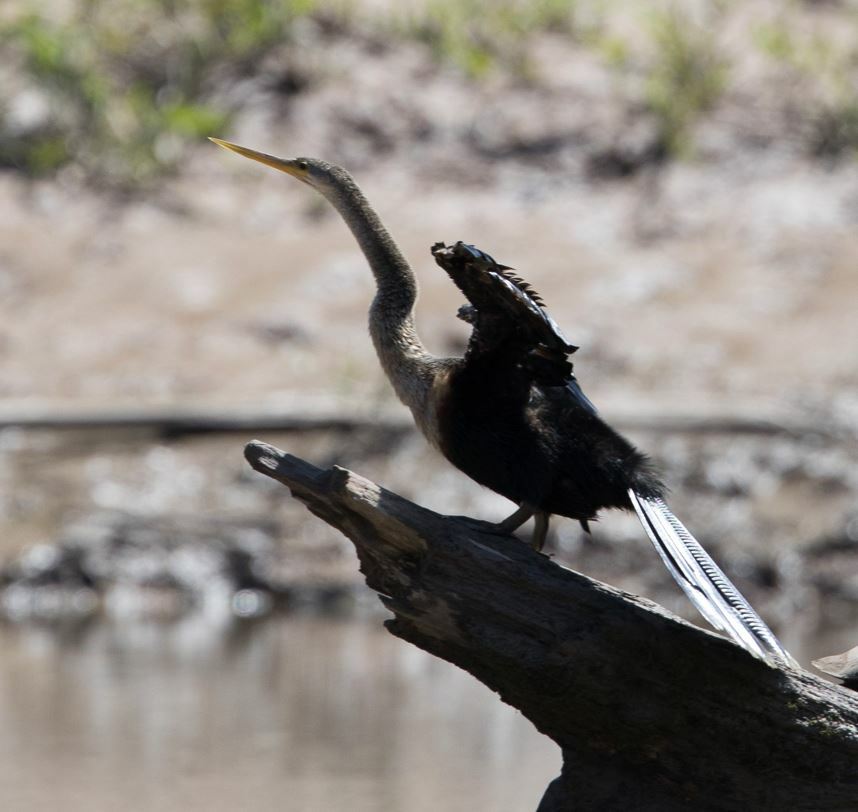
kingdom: Animalia
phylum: Chordata
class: Aves
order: Suliformes
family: Anhingidae
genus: Anhinga
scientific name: Anhinga anhinga
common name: Anhinga
